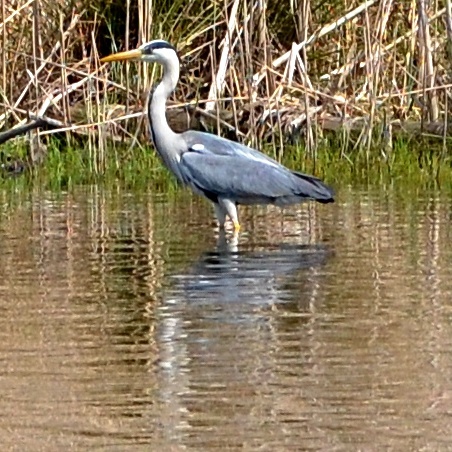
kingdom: Animalia
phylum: Chordata
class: Aves
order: Pelecaniformes
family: Ardeidae
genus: Ardea
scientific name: Ardea cinerea
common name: Grey heron
